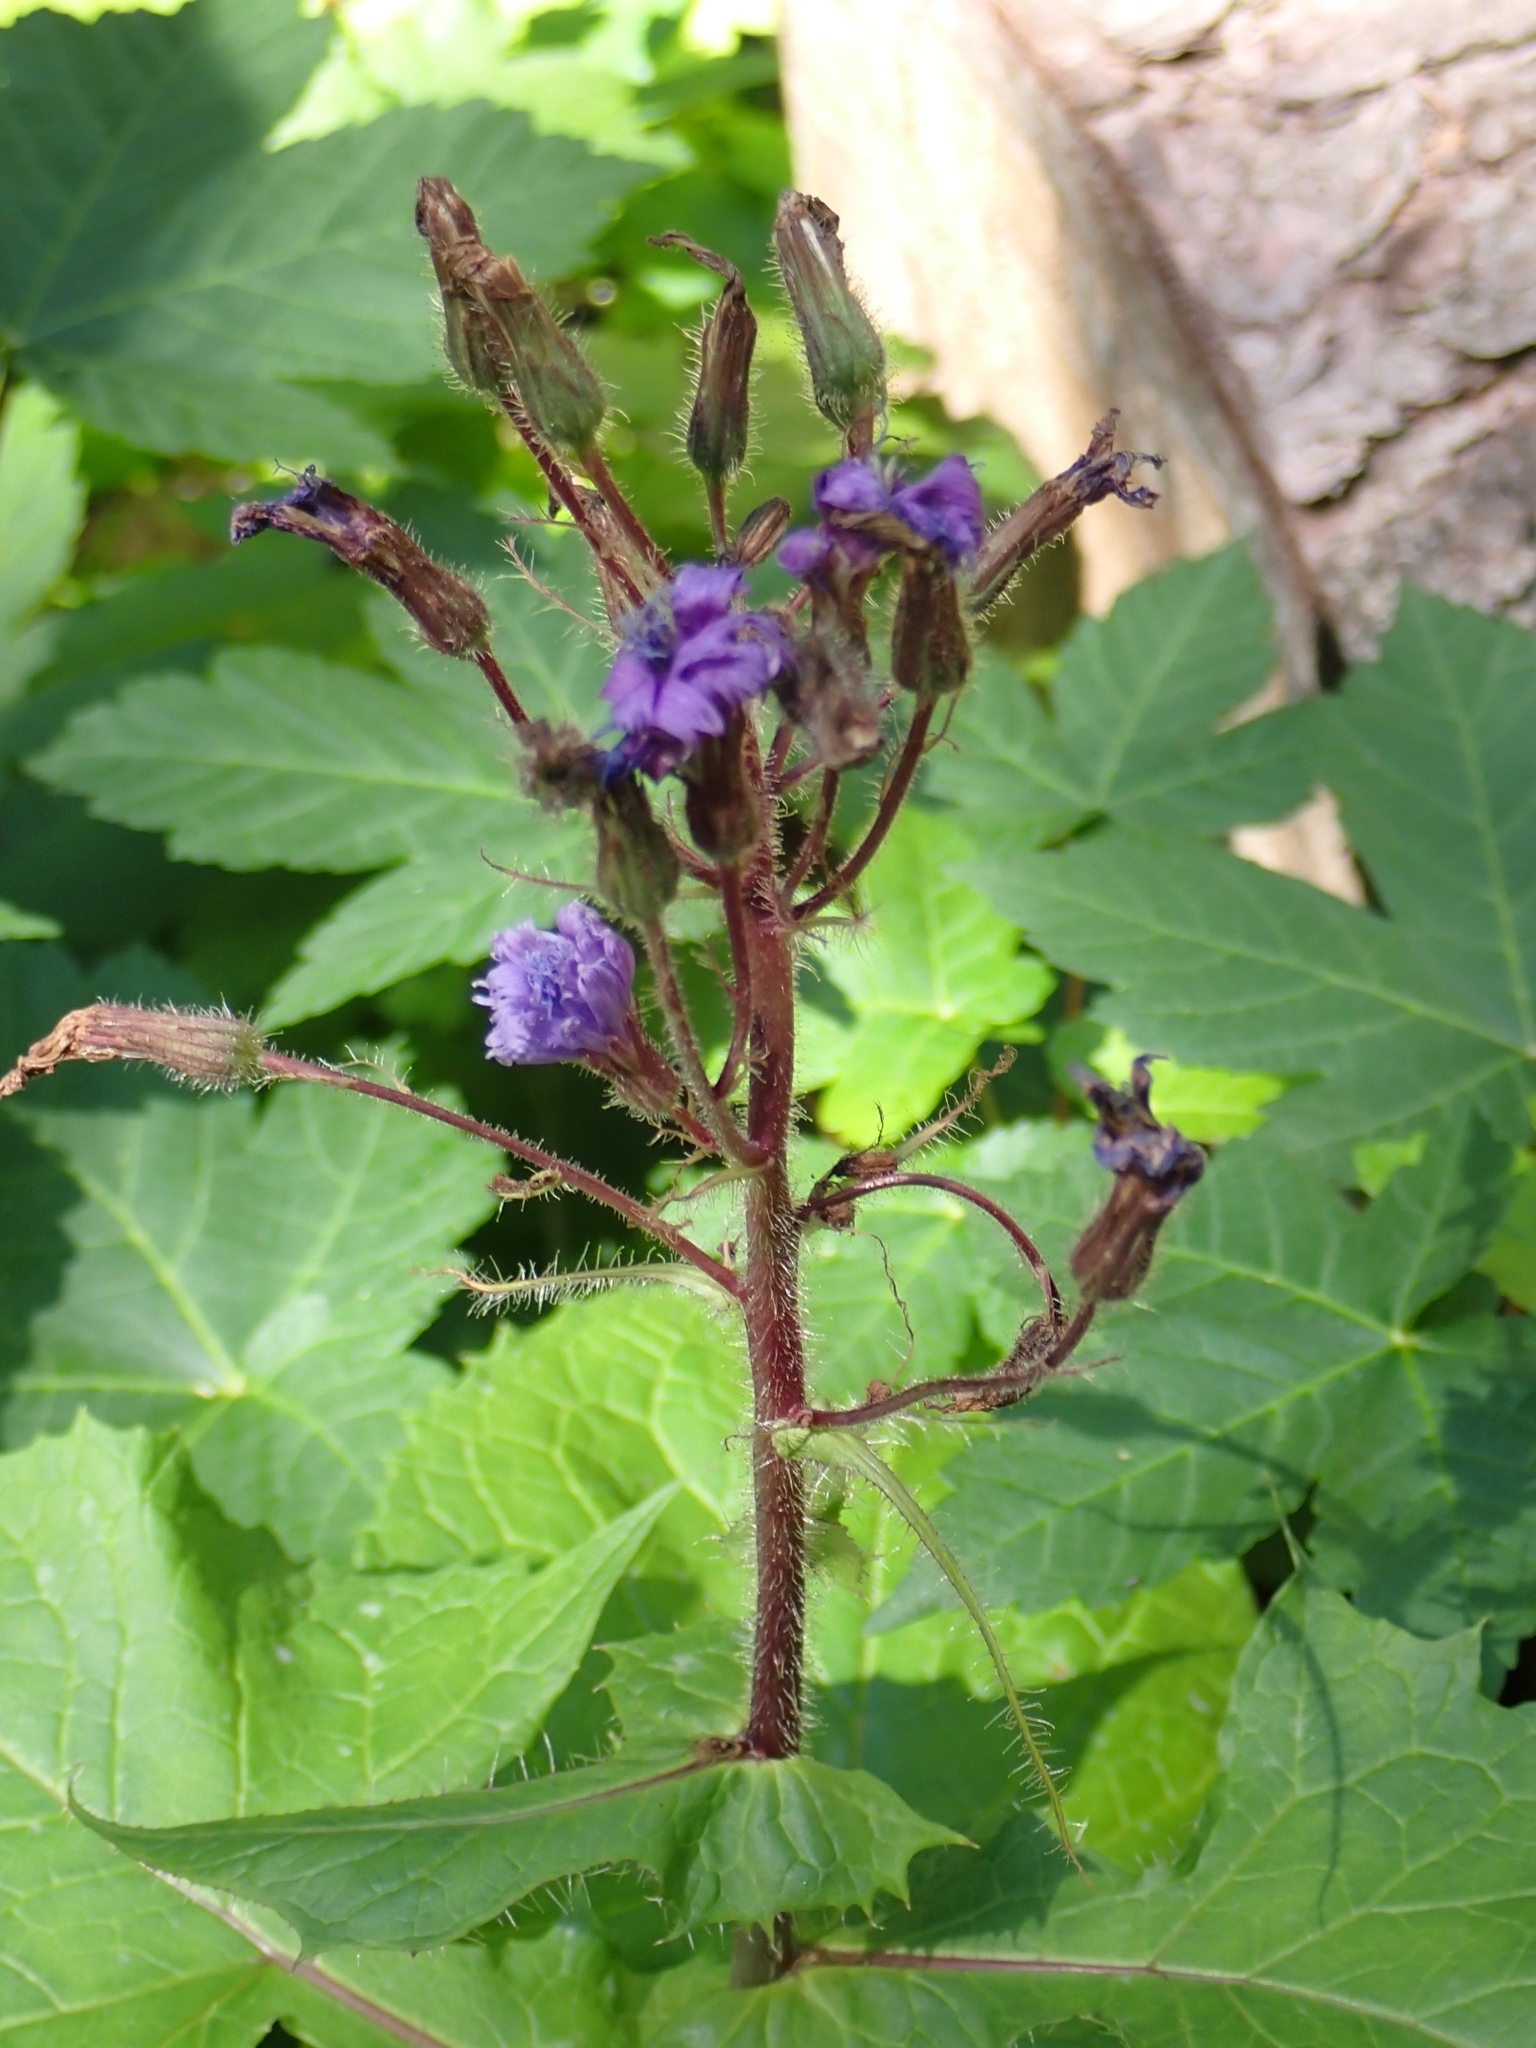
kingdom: Plantae
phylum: Tracheophyta
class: Magnoliopsida
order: Asterales
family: Asteraceae
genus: Cicerbita
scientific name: Cicerbita alpina
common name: Alpine blue-sow-thistle
